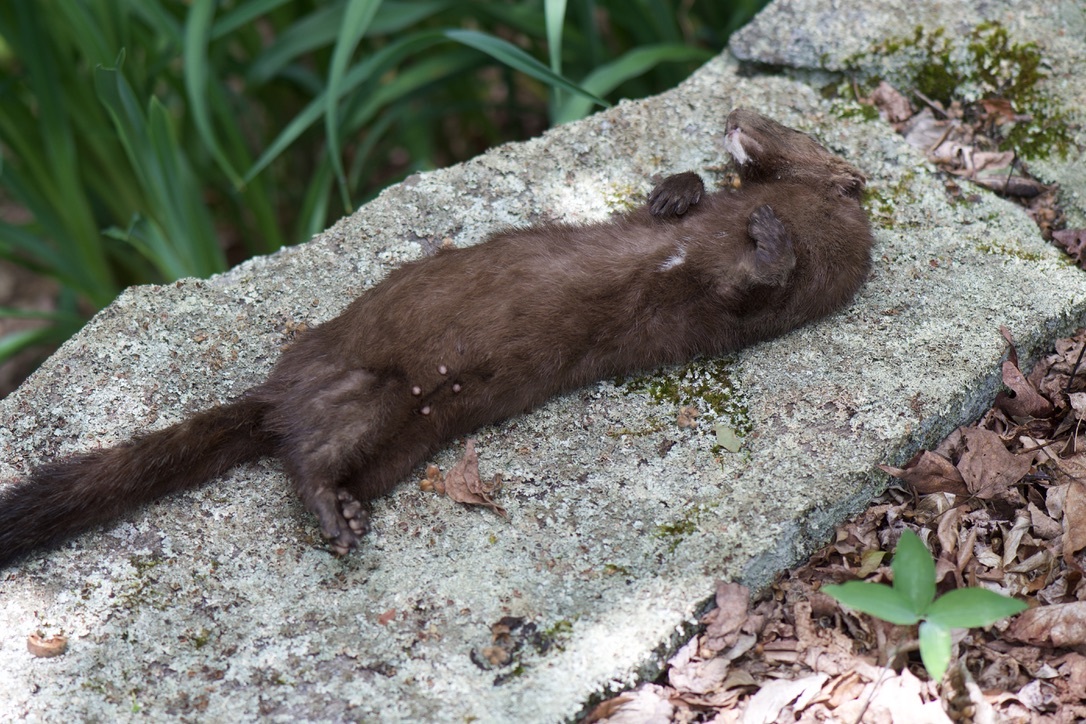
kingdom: Animalia
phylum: Chordata
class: Mammalia
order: Carnivora
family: Mustelidae
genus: Mustela
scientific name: Mustela
